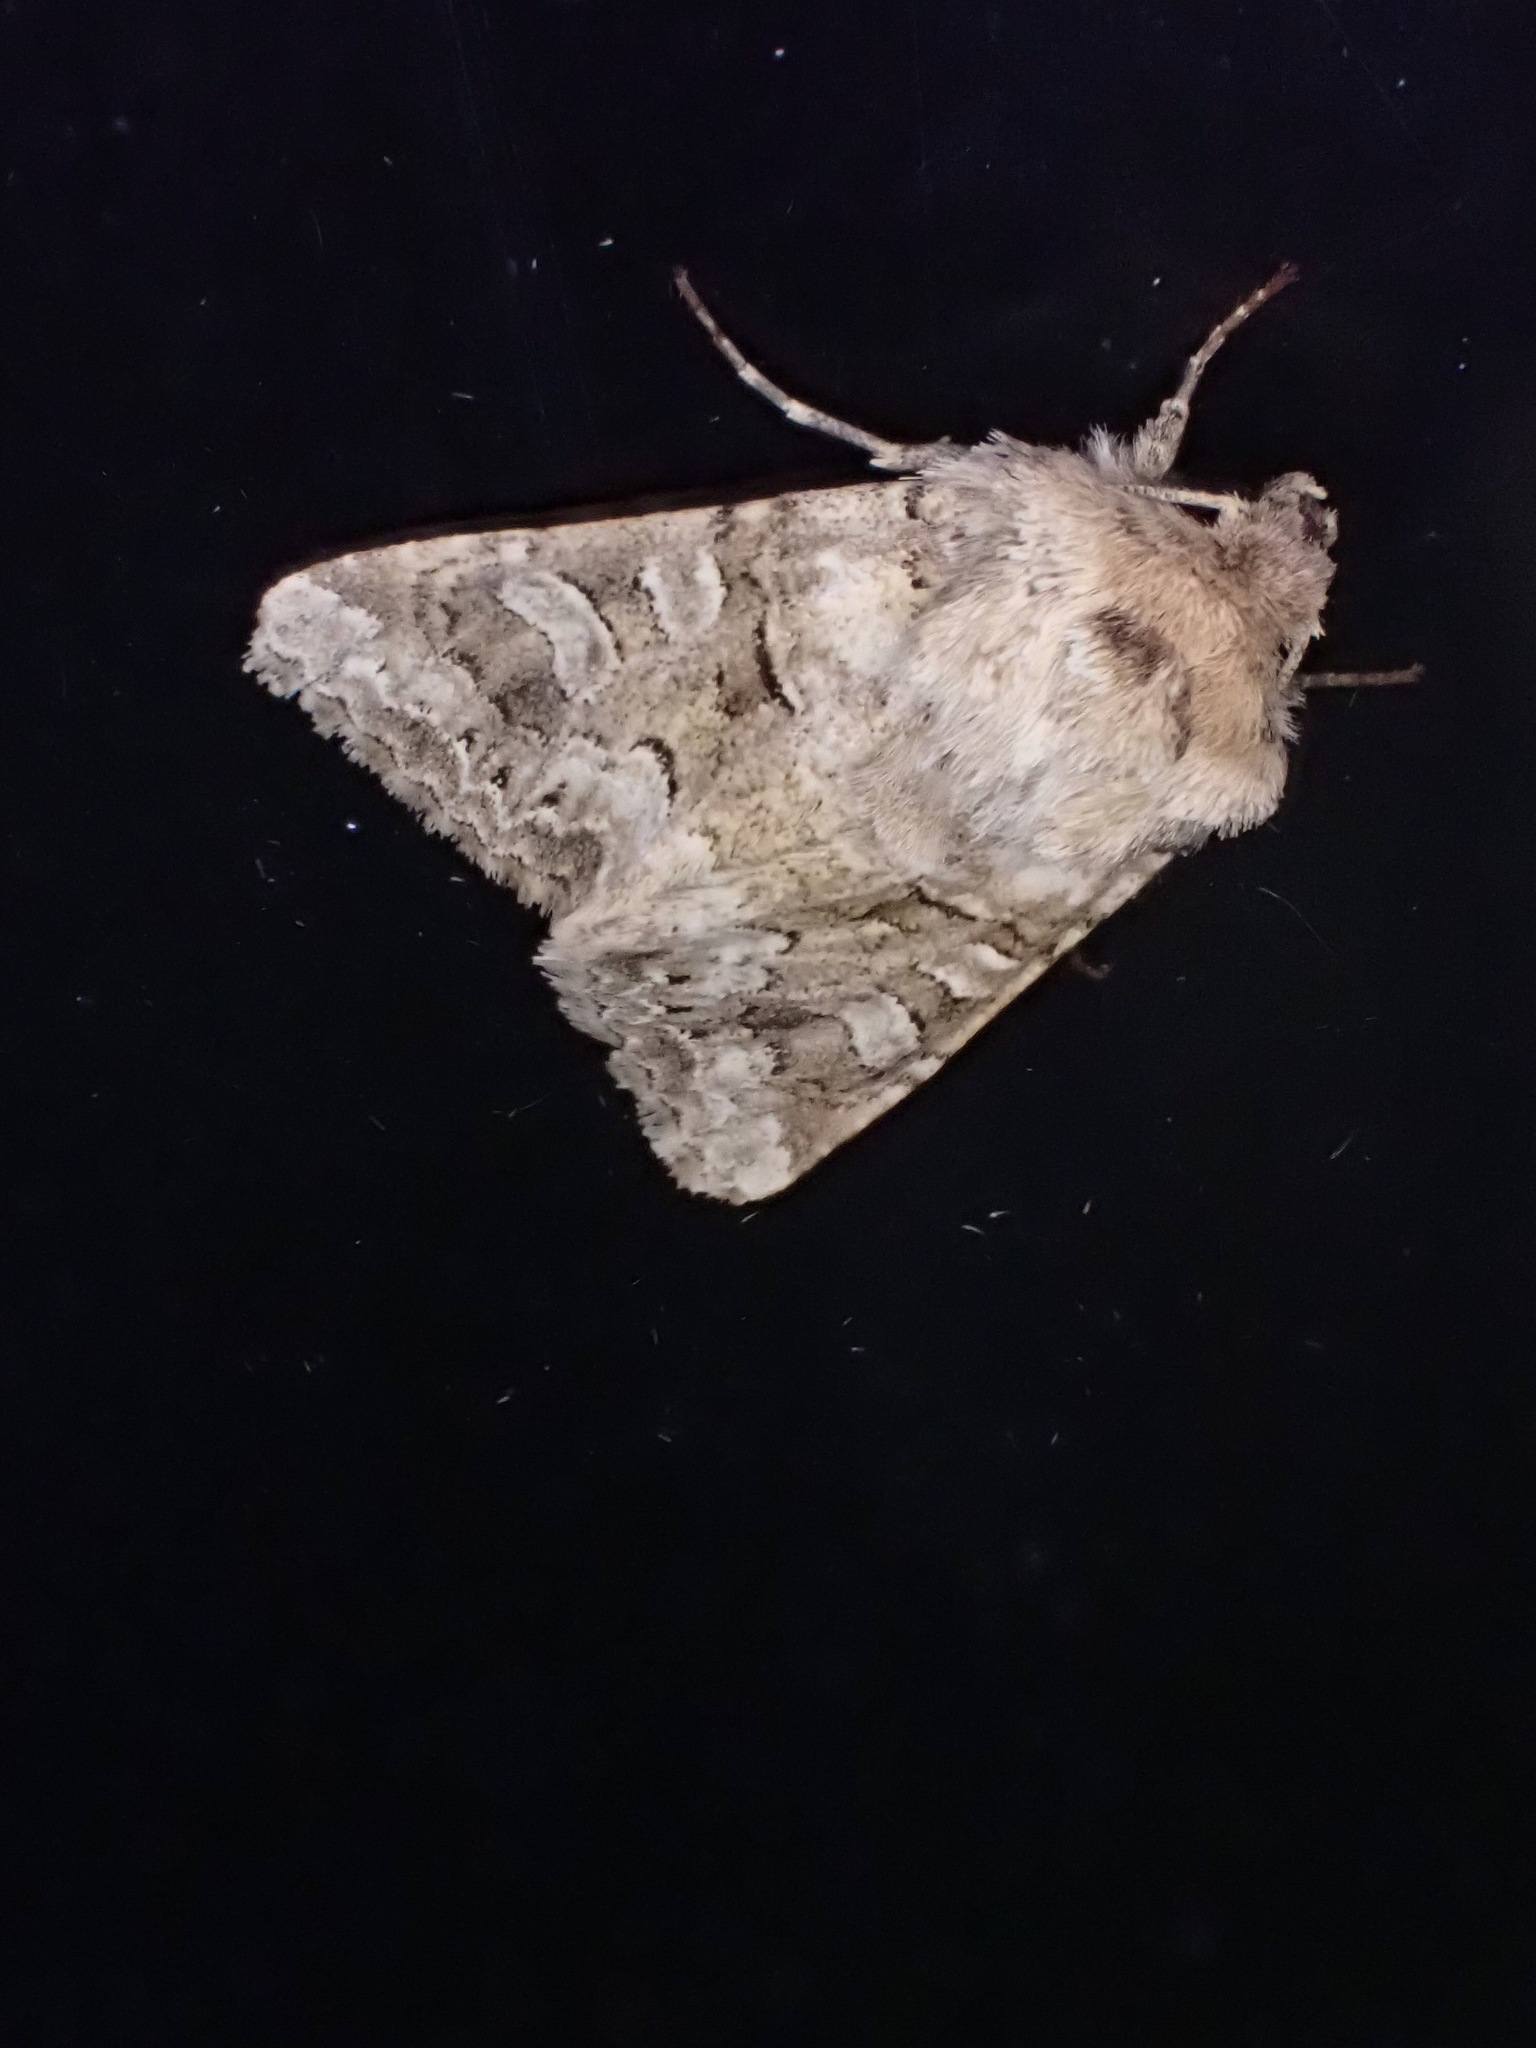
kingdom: Animalia
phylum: Arthropoda
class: Insecta
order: Lepidoptera
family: Noctuidae
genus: Hadena
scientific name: Hadena perplexa
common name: Tawny shears
